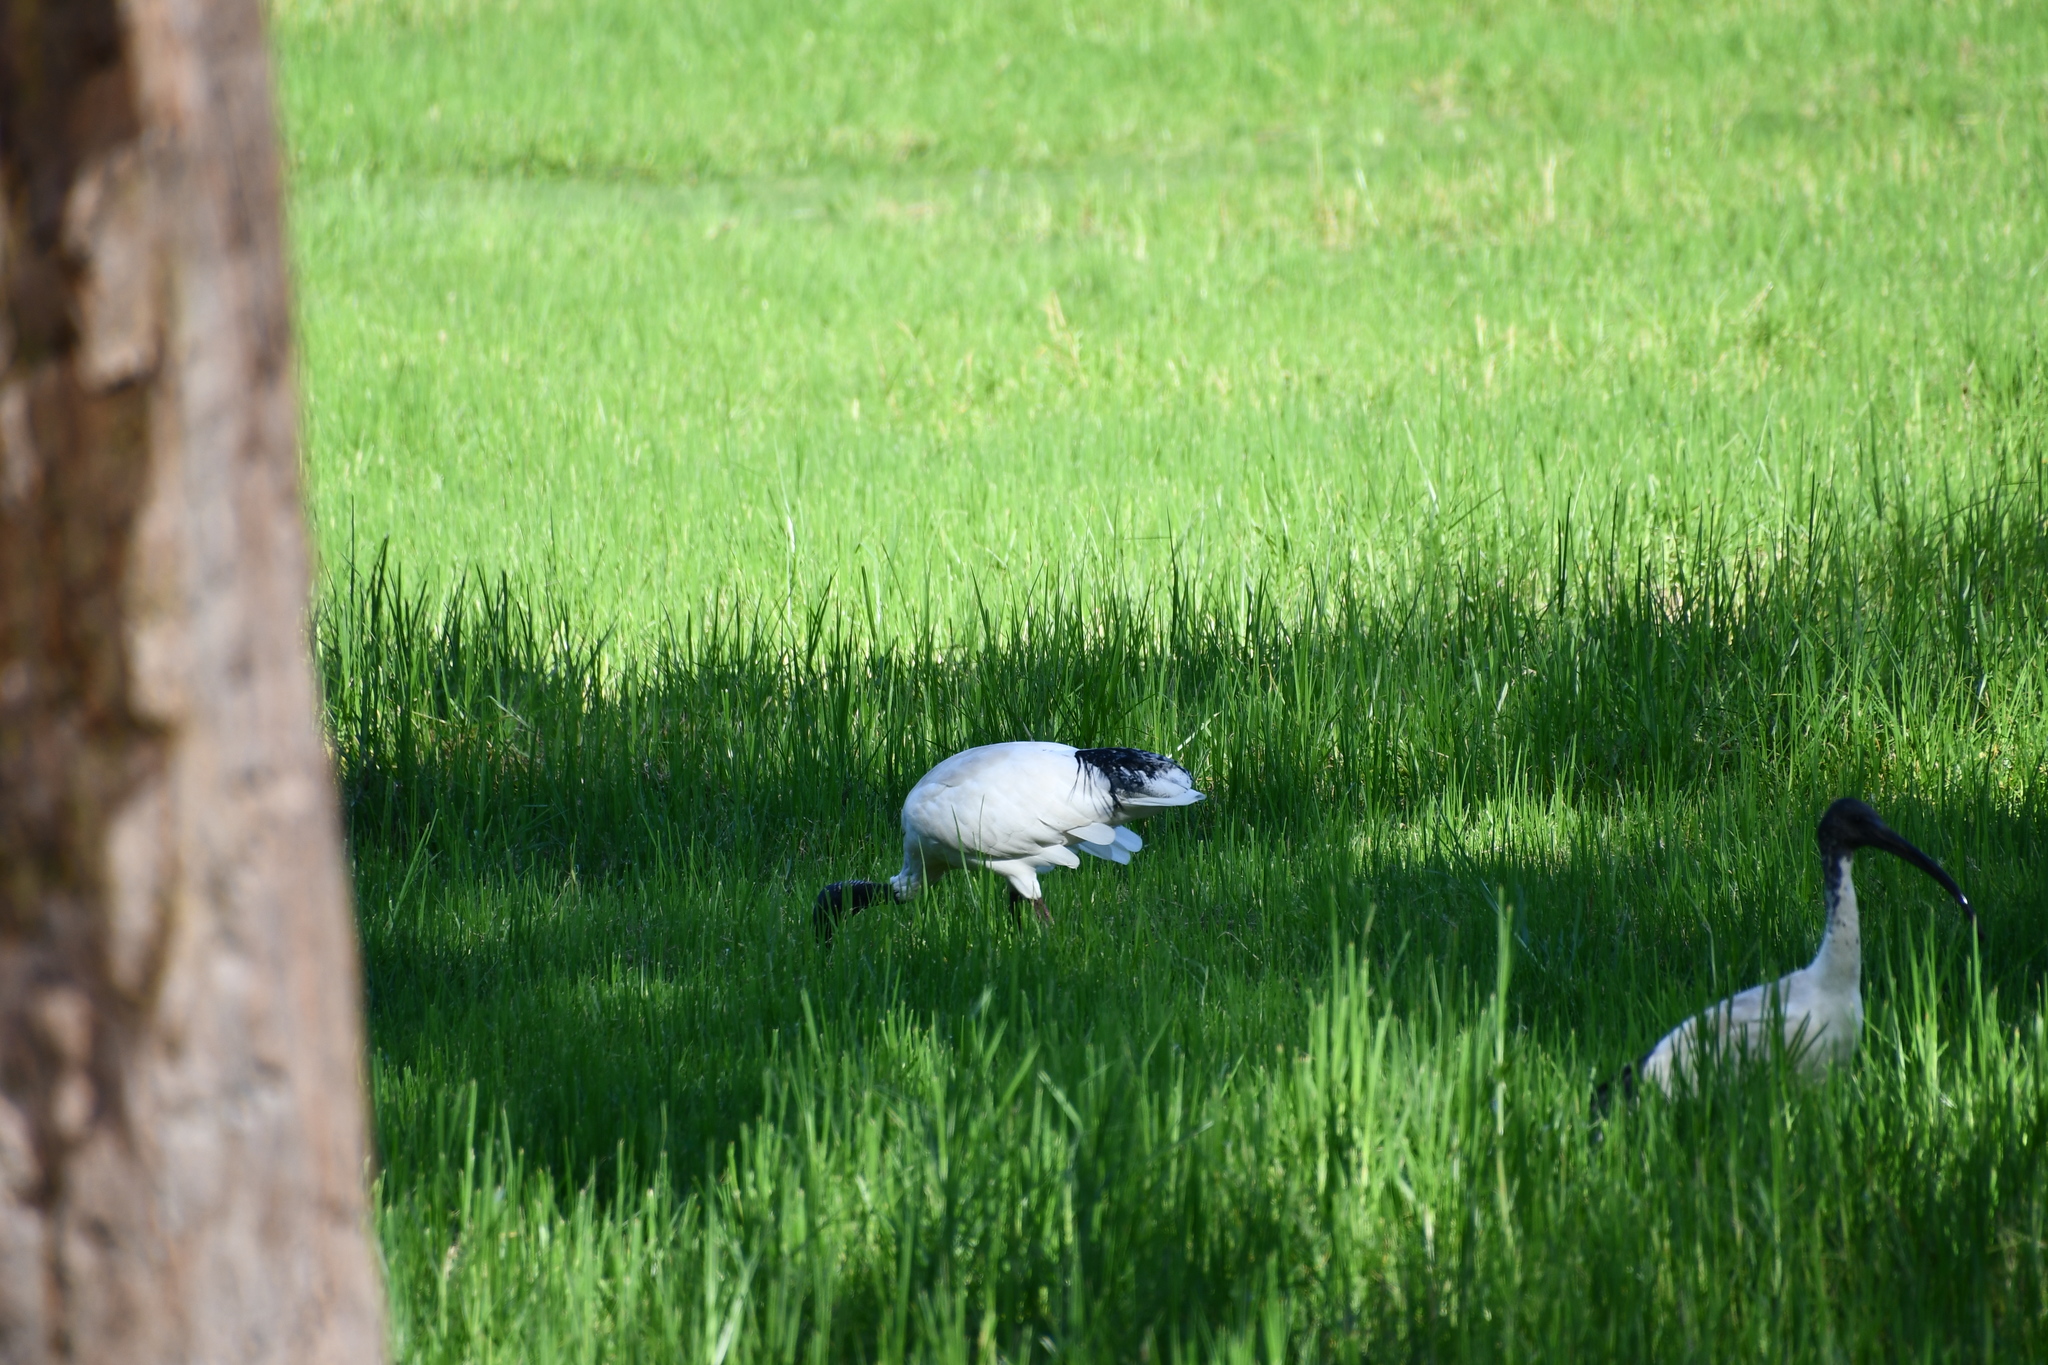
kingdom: Animalia
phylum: Chordata
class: Aves
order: Pelecaniformes
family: Threskiornithidae
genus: Threskiornis
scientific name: Threskiornis molucca
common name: Australian white ibis
